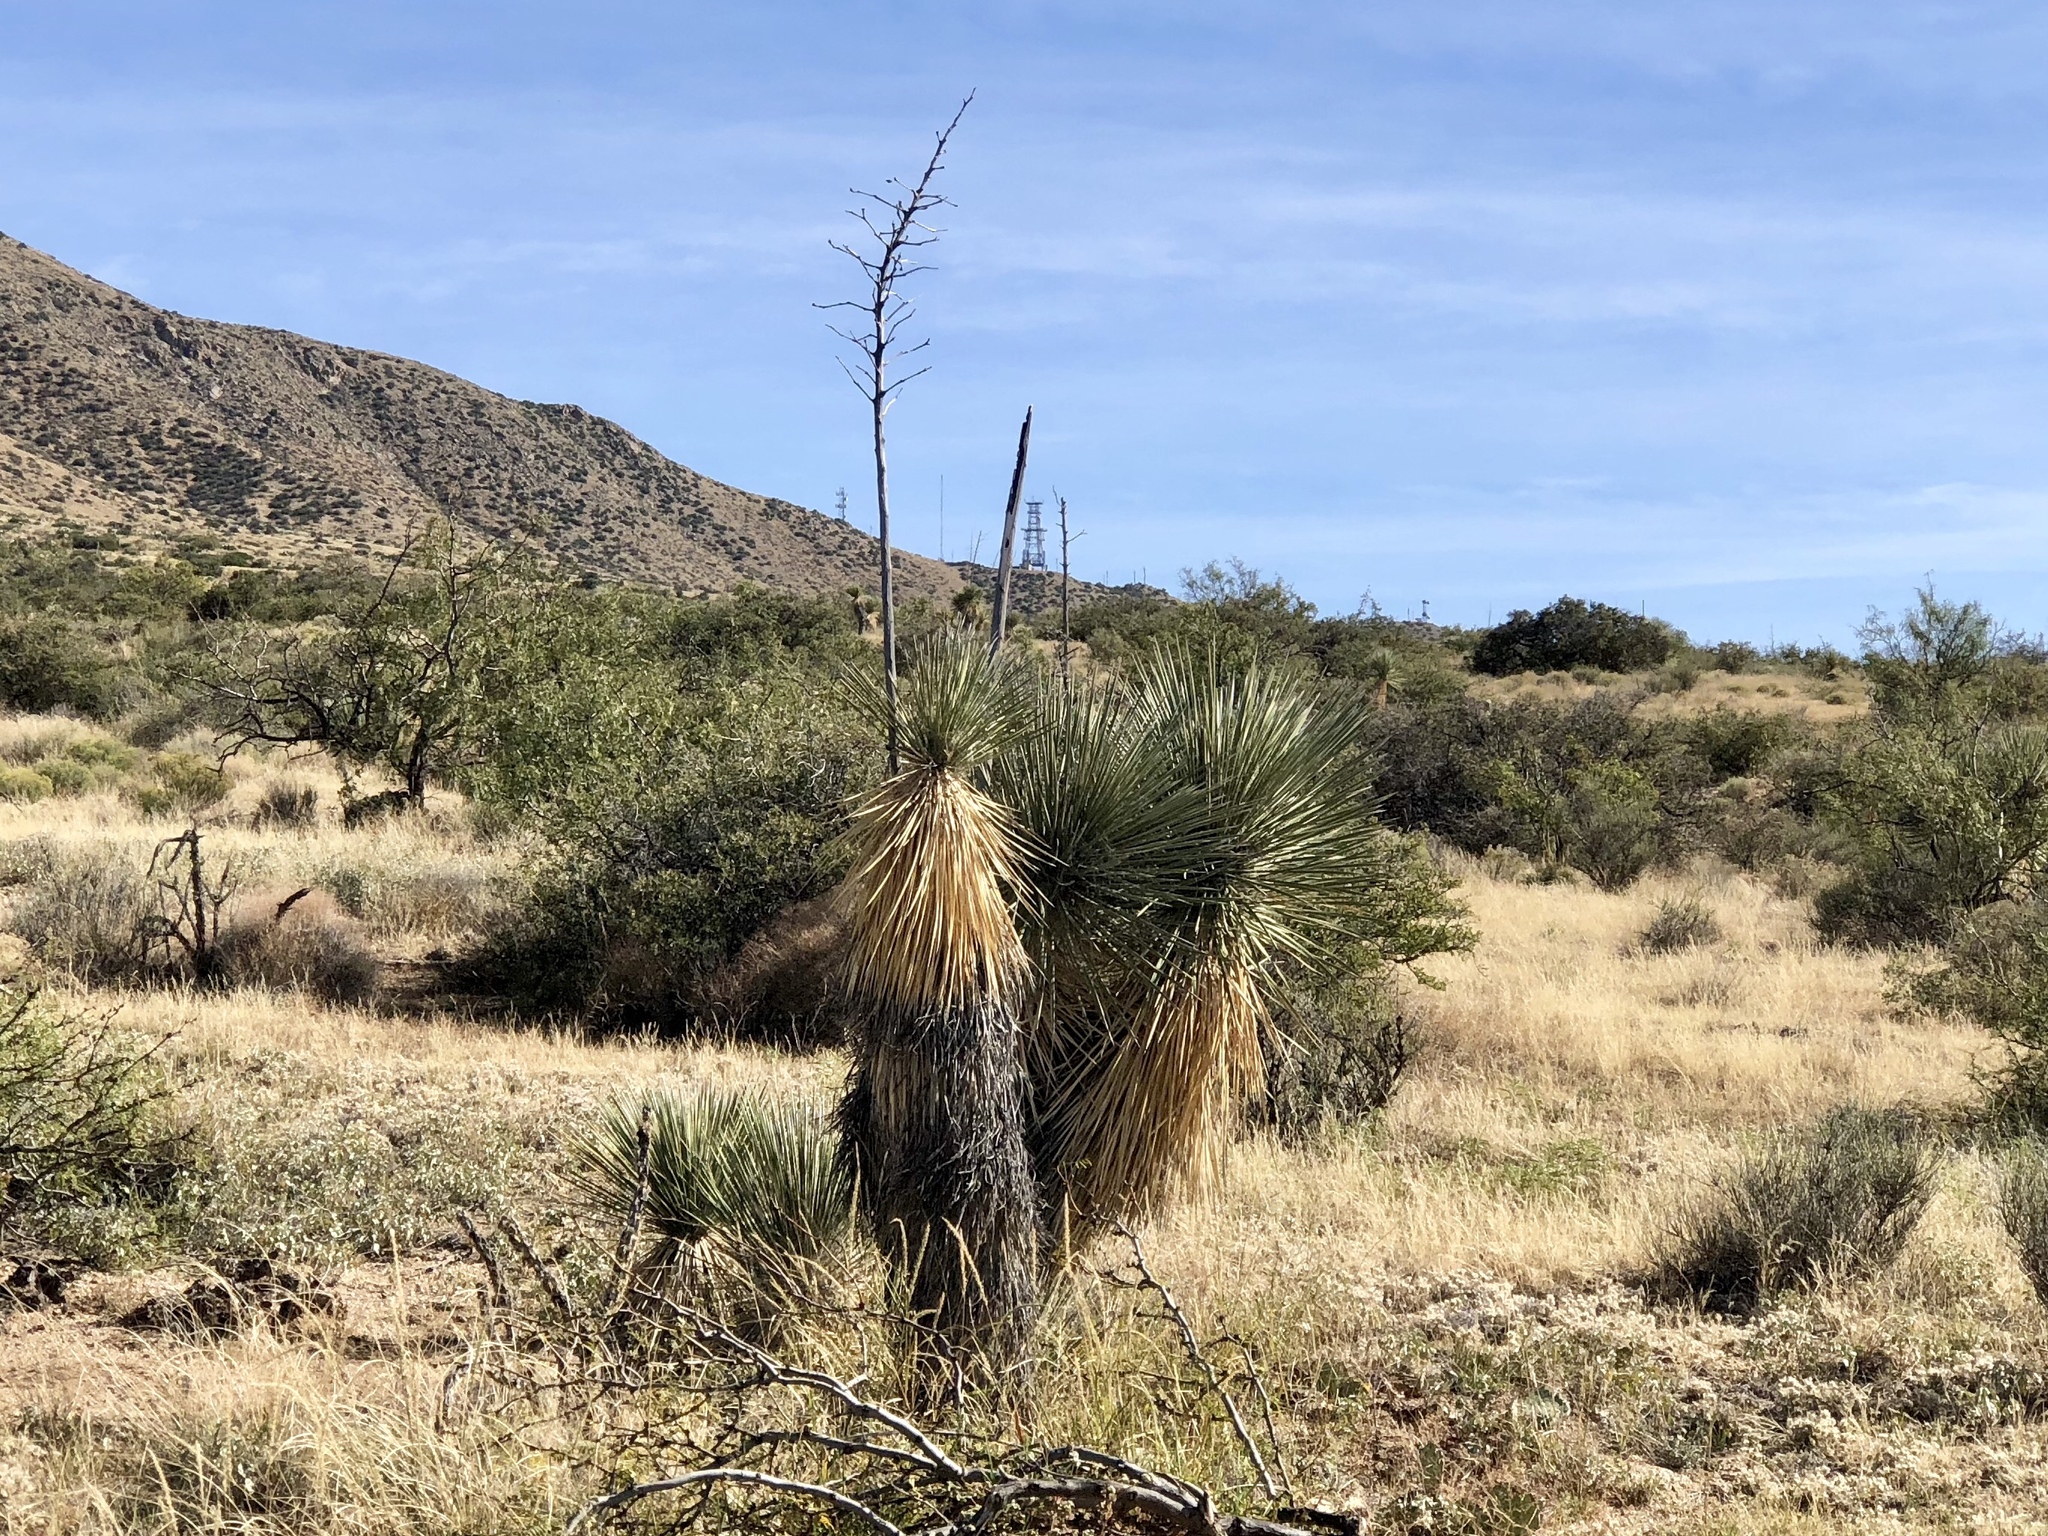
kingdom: Plantae
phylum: Tracheophyta
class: Liliopsida
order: Asparagales
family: Asparagaceae
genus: Yucca
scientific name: Yucca elata
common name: Palmella
